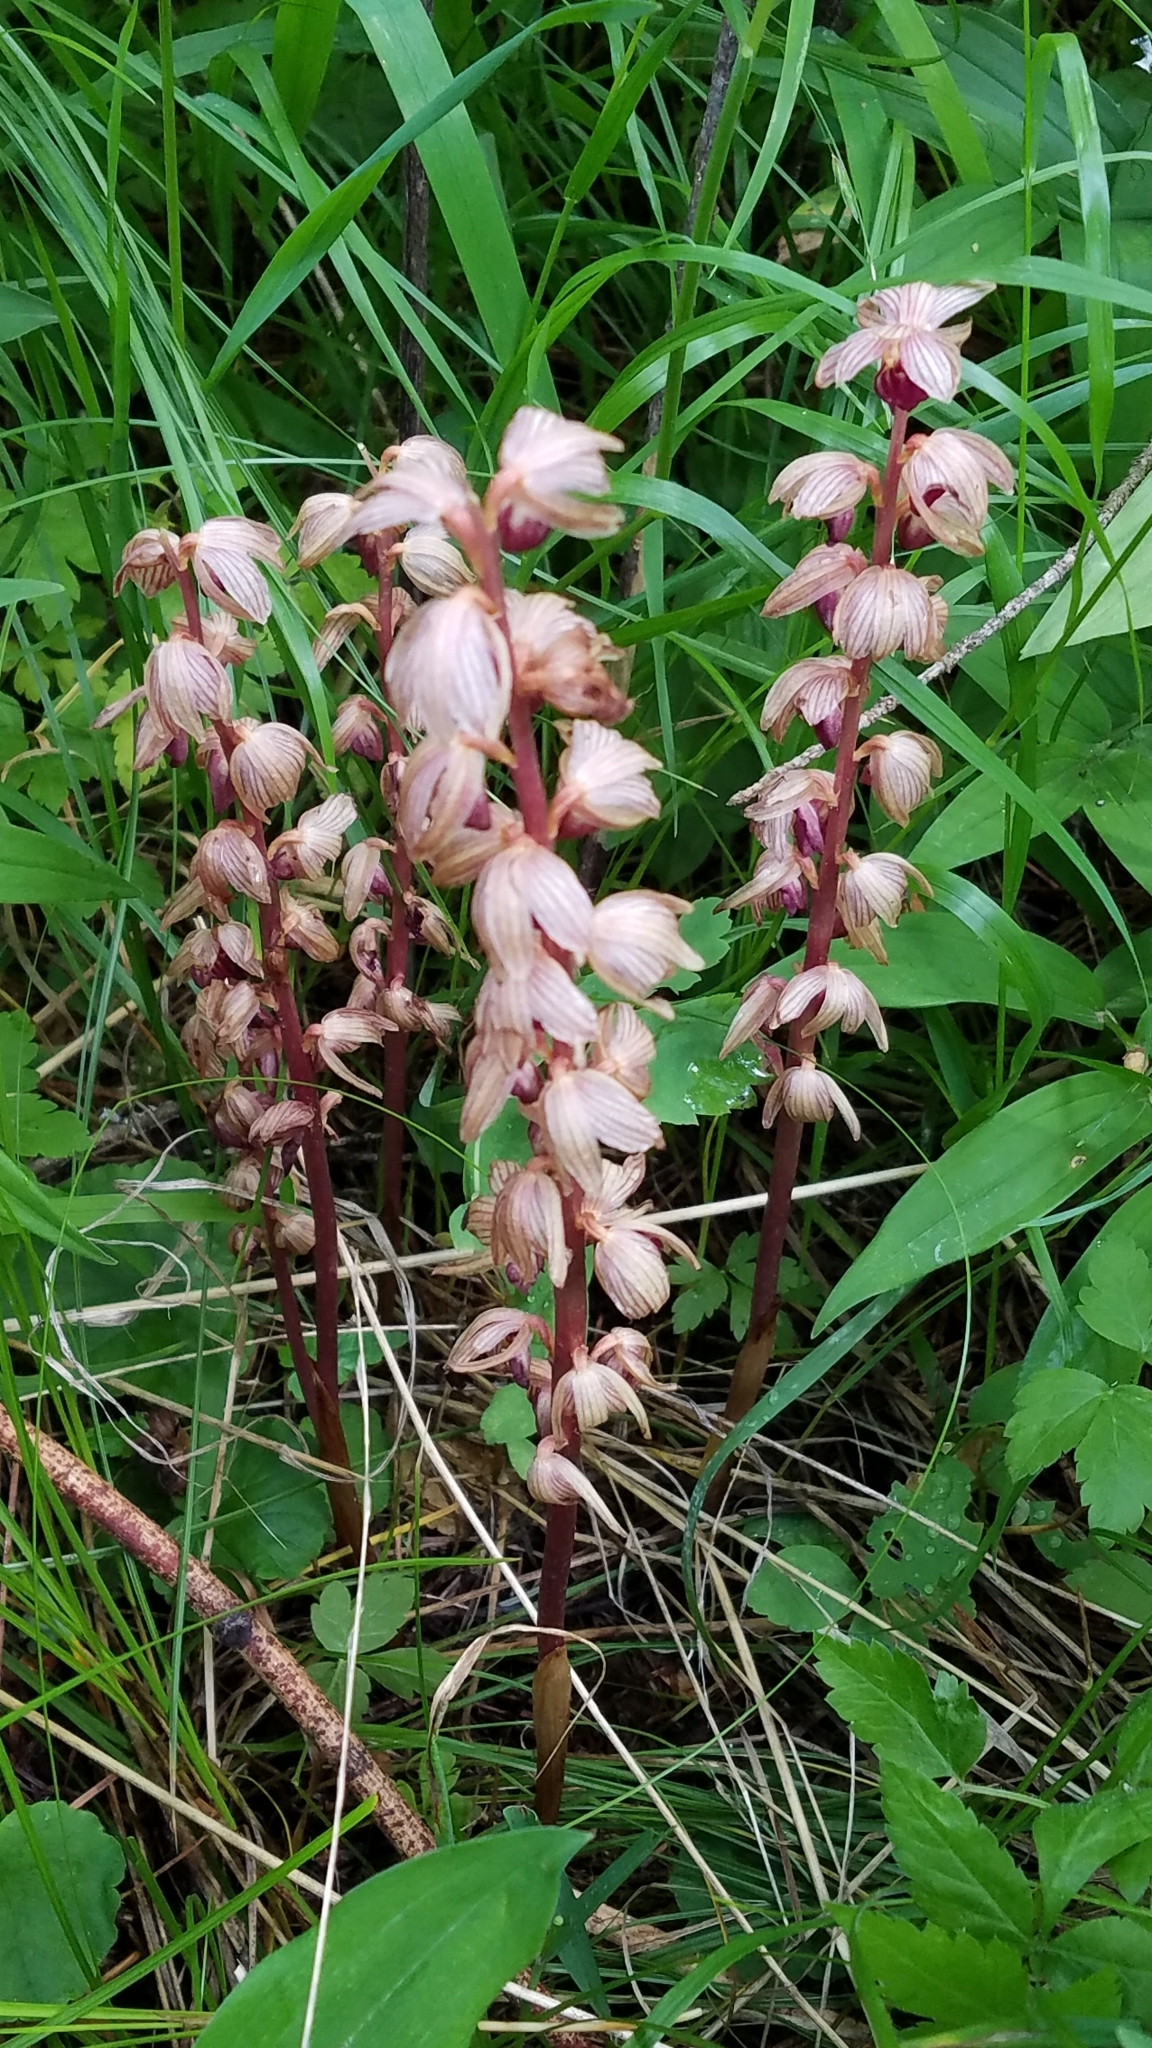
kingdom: Plantae
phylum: Tracheophyta
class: Liliopsida
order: Asparagales
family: Orchidaceae
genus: Corallorhiza
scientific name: Corallorhiza striata
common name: Hooded coralroot
